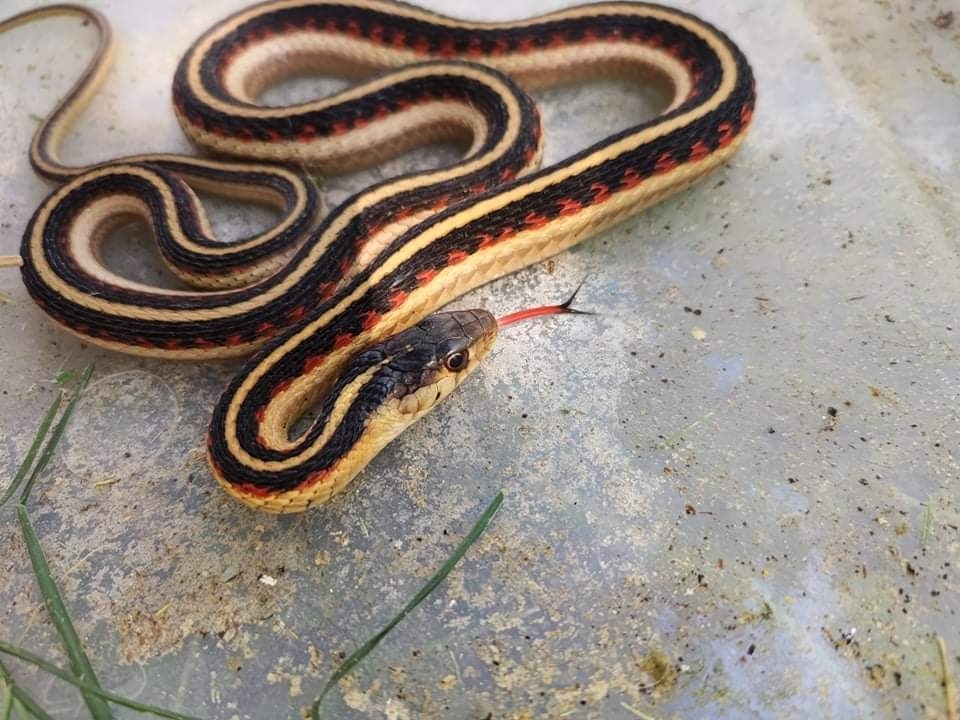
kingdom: Animalia
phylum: Chordata
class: Squamata
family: Colubridae
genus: Thamnophis
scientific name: Thamnophis sirtalis
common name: Common garter snake
